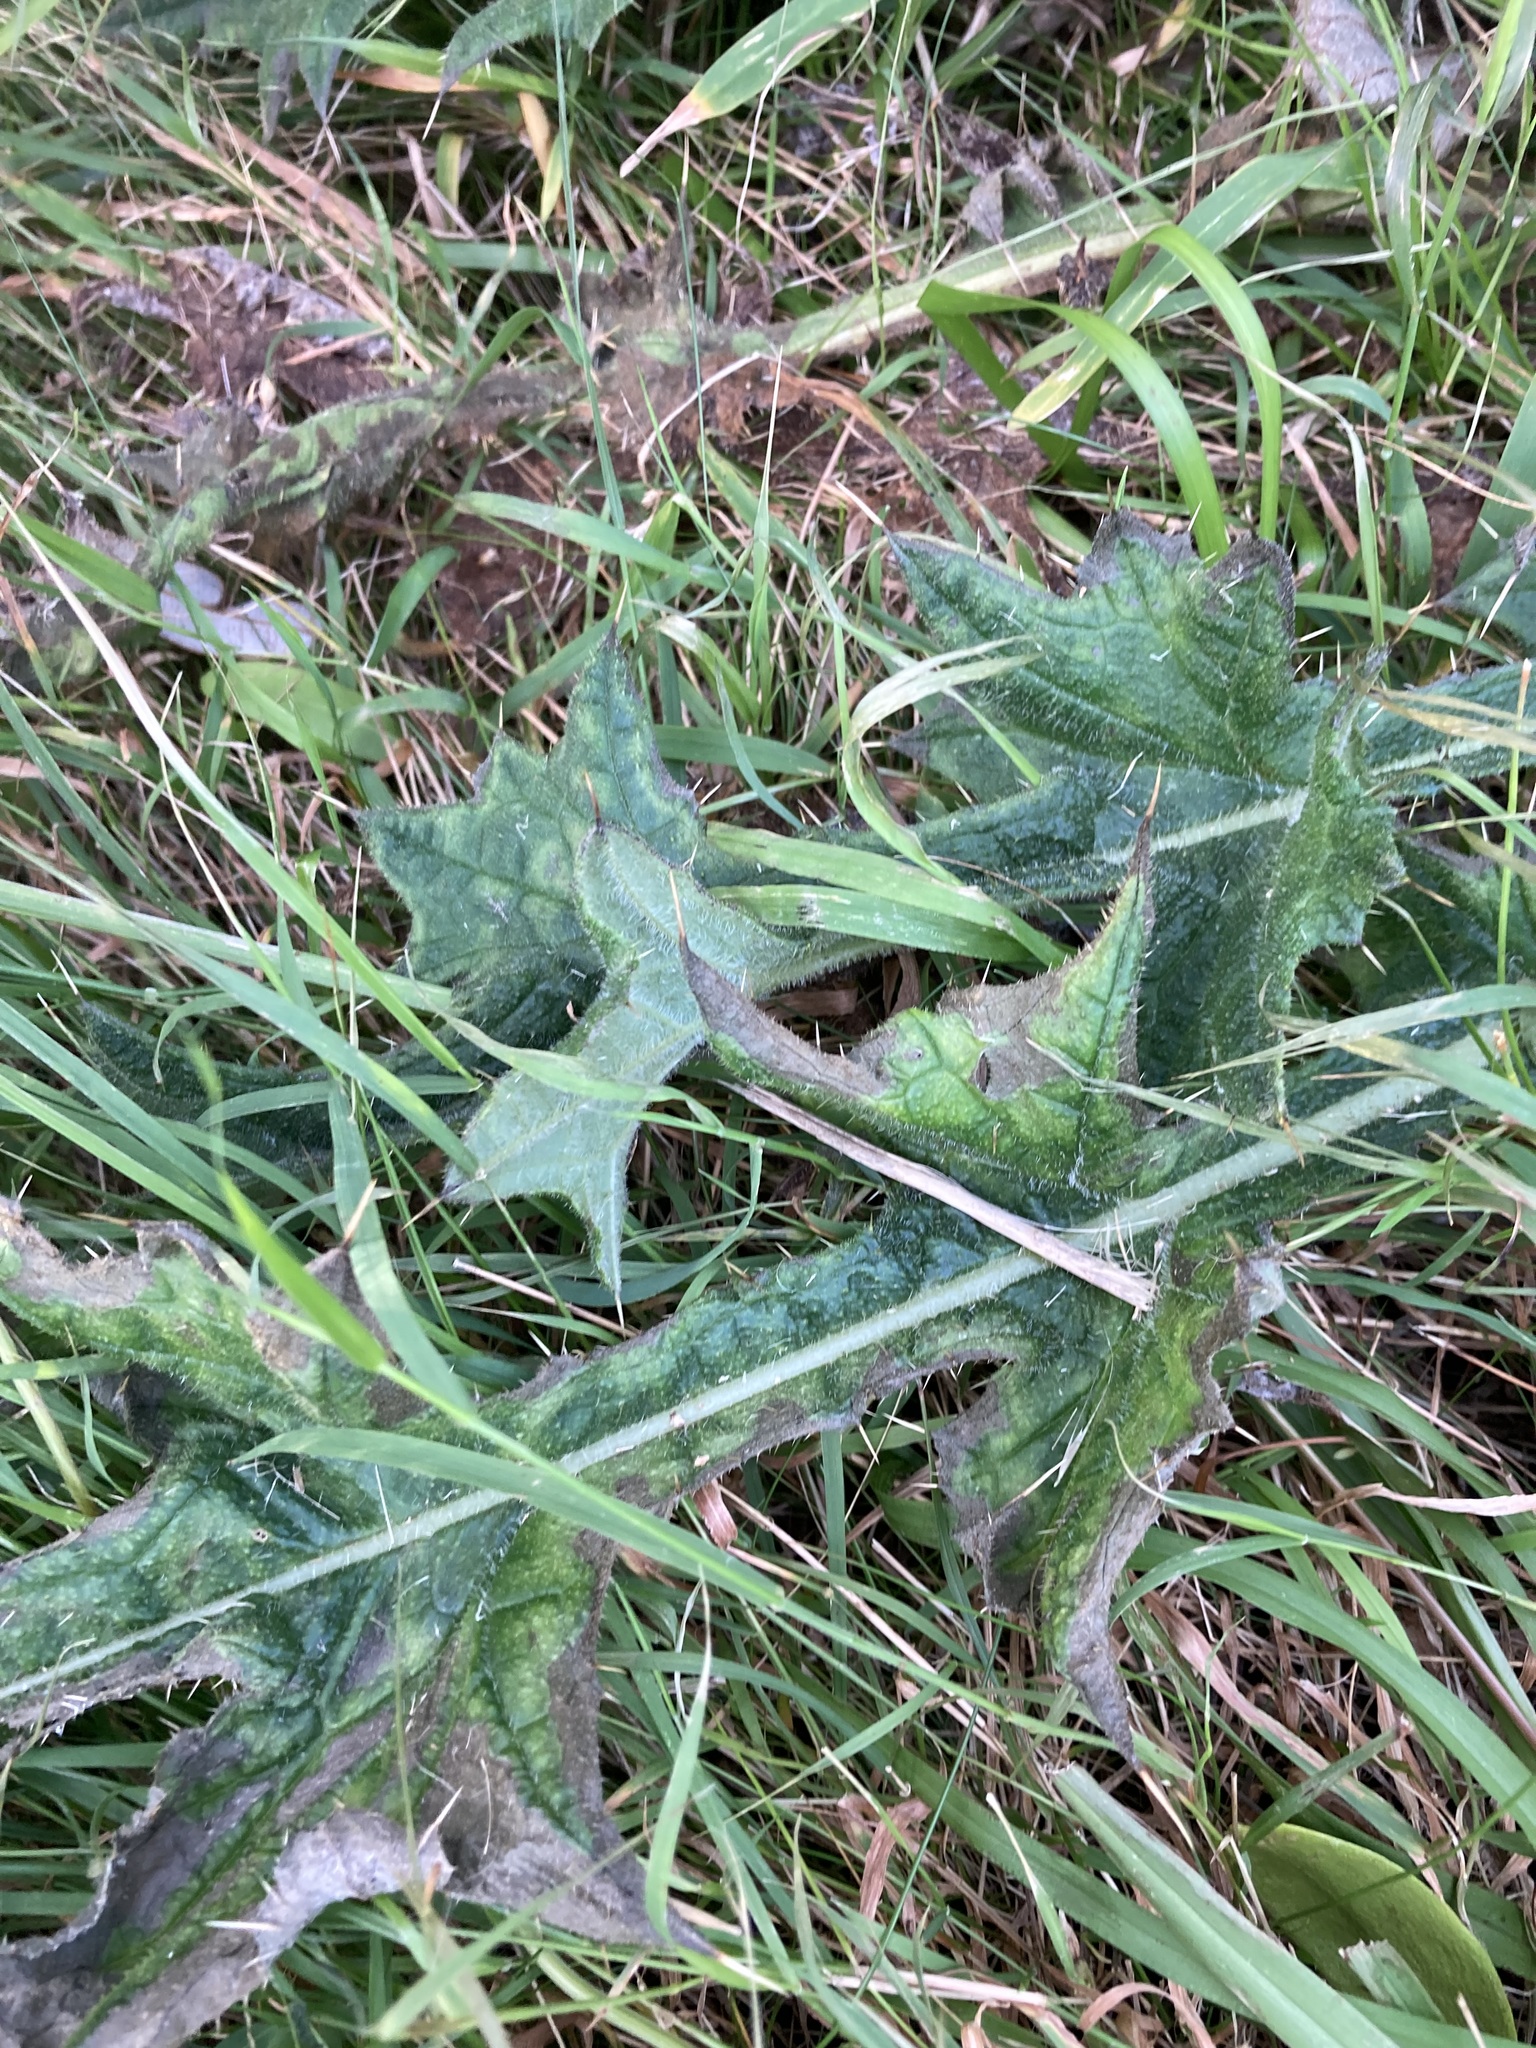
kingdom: Plantae
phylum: Tracheophyta
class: Magnoliopsida
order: Asterales
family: Asteraceae
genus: Cirsium
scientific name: Cirsium vulgare
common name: Bull thistle
